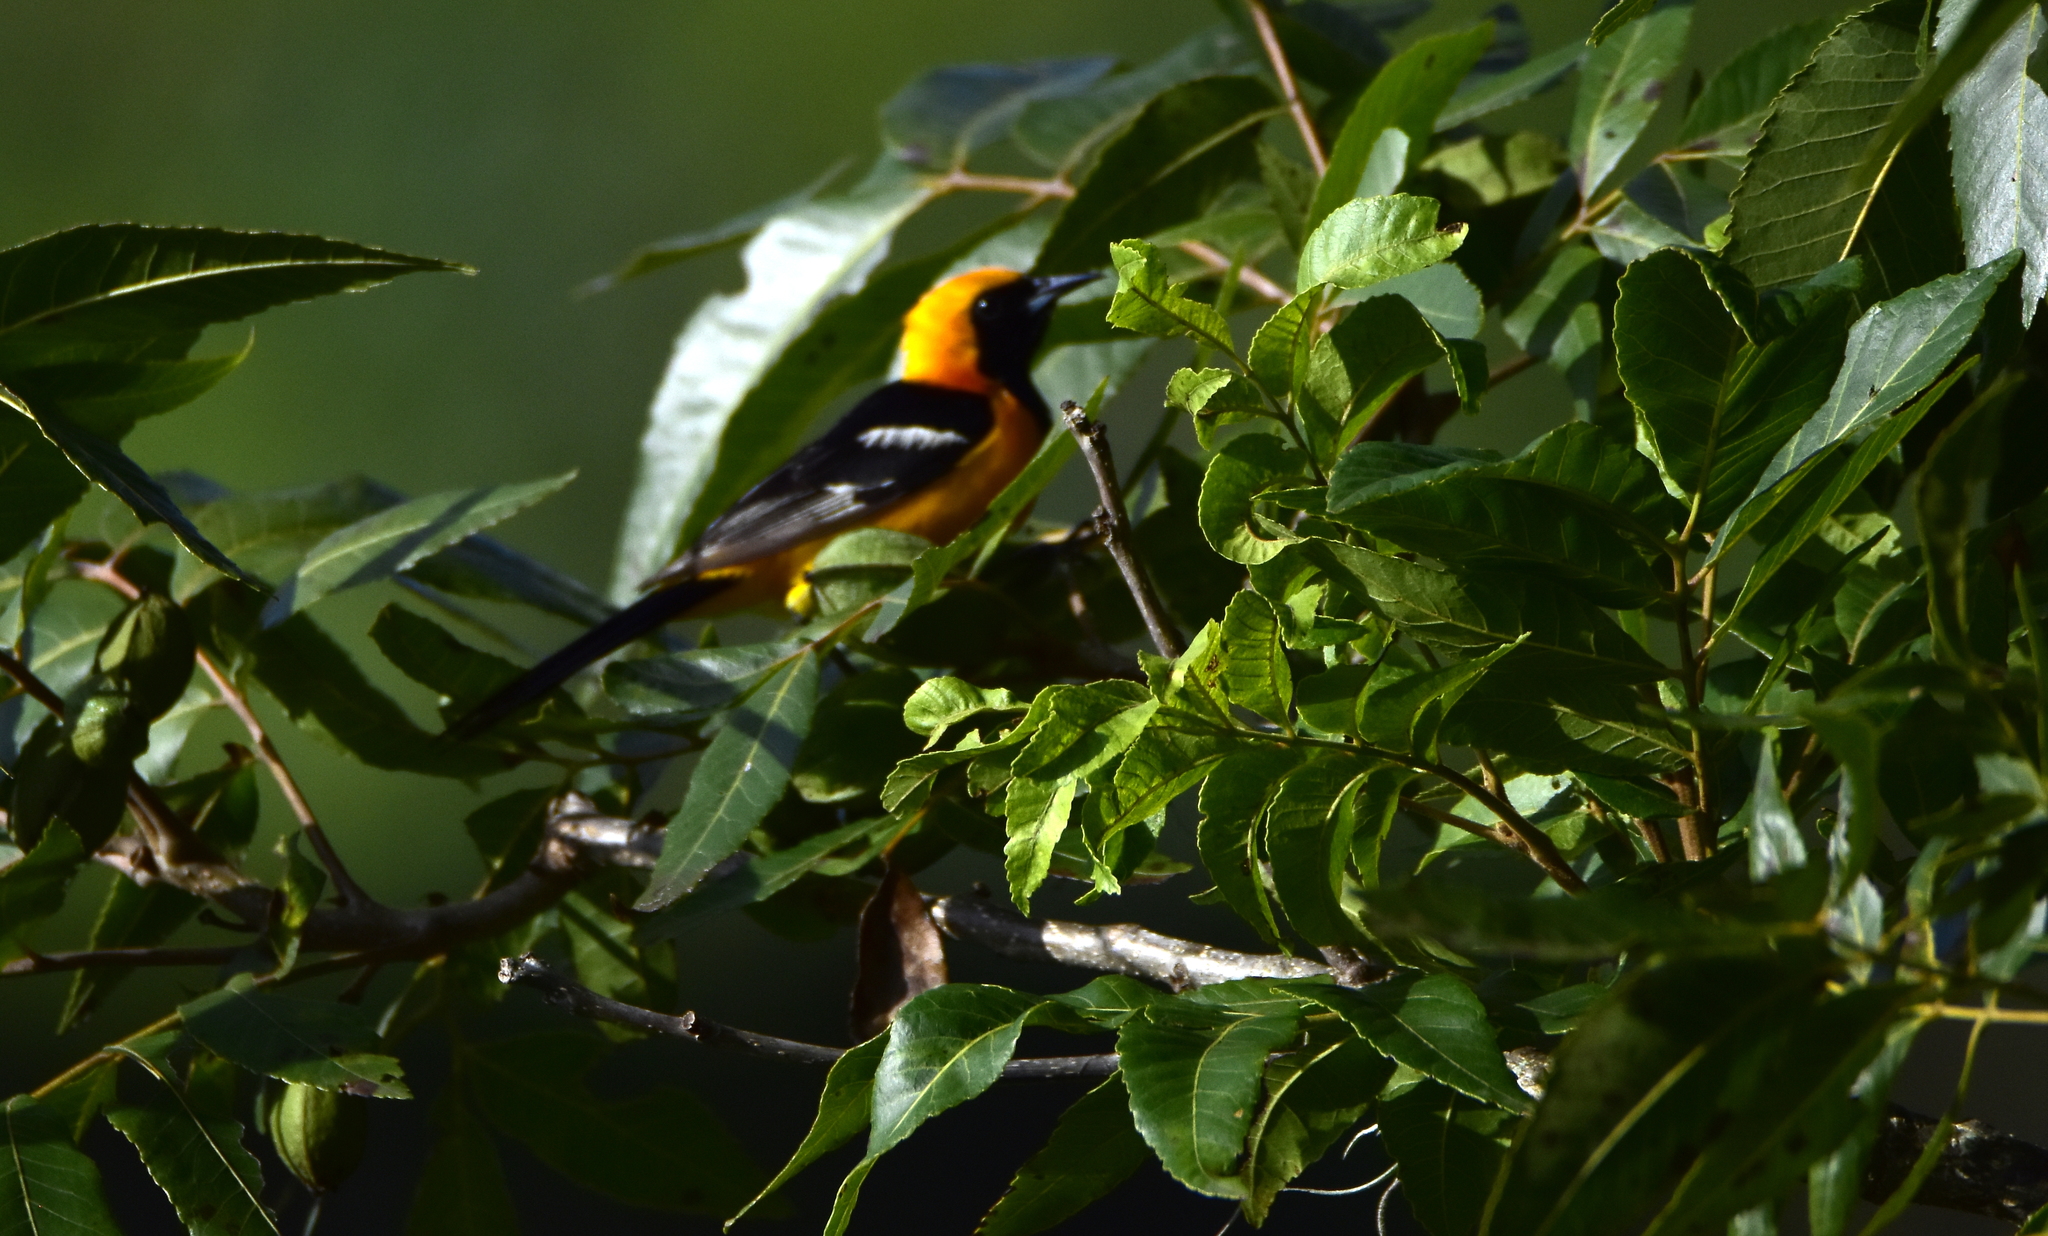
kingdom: Animalia
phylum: Chordata
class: Aves
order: Passeriformes
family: Icteridae
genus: Icterus
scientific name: Icterus cucullatus
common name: Hooded oriole
